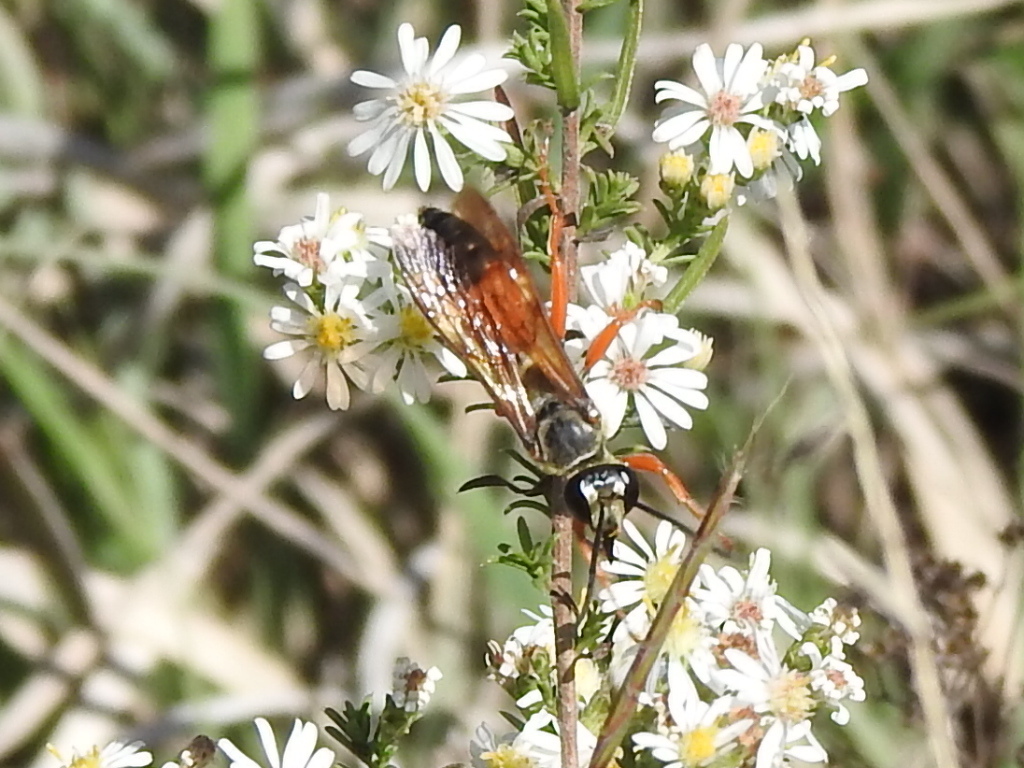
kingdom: Animalia
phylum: Arthropoda
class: Insecta
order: Hymenoptera
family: Sphecidae
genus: Sphex
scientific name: Sphex ichneumoneus
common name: Great golden digger wasp
